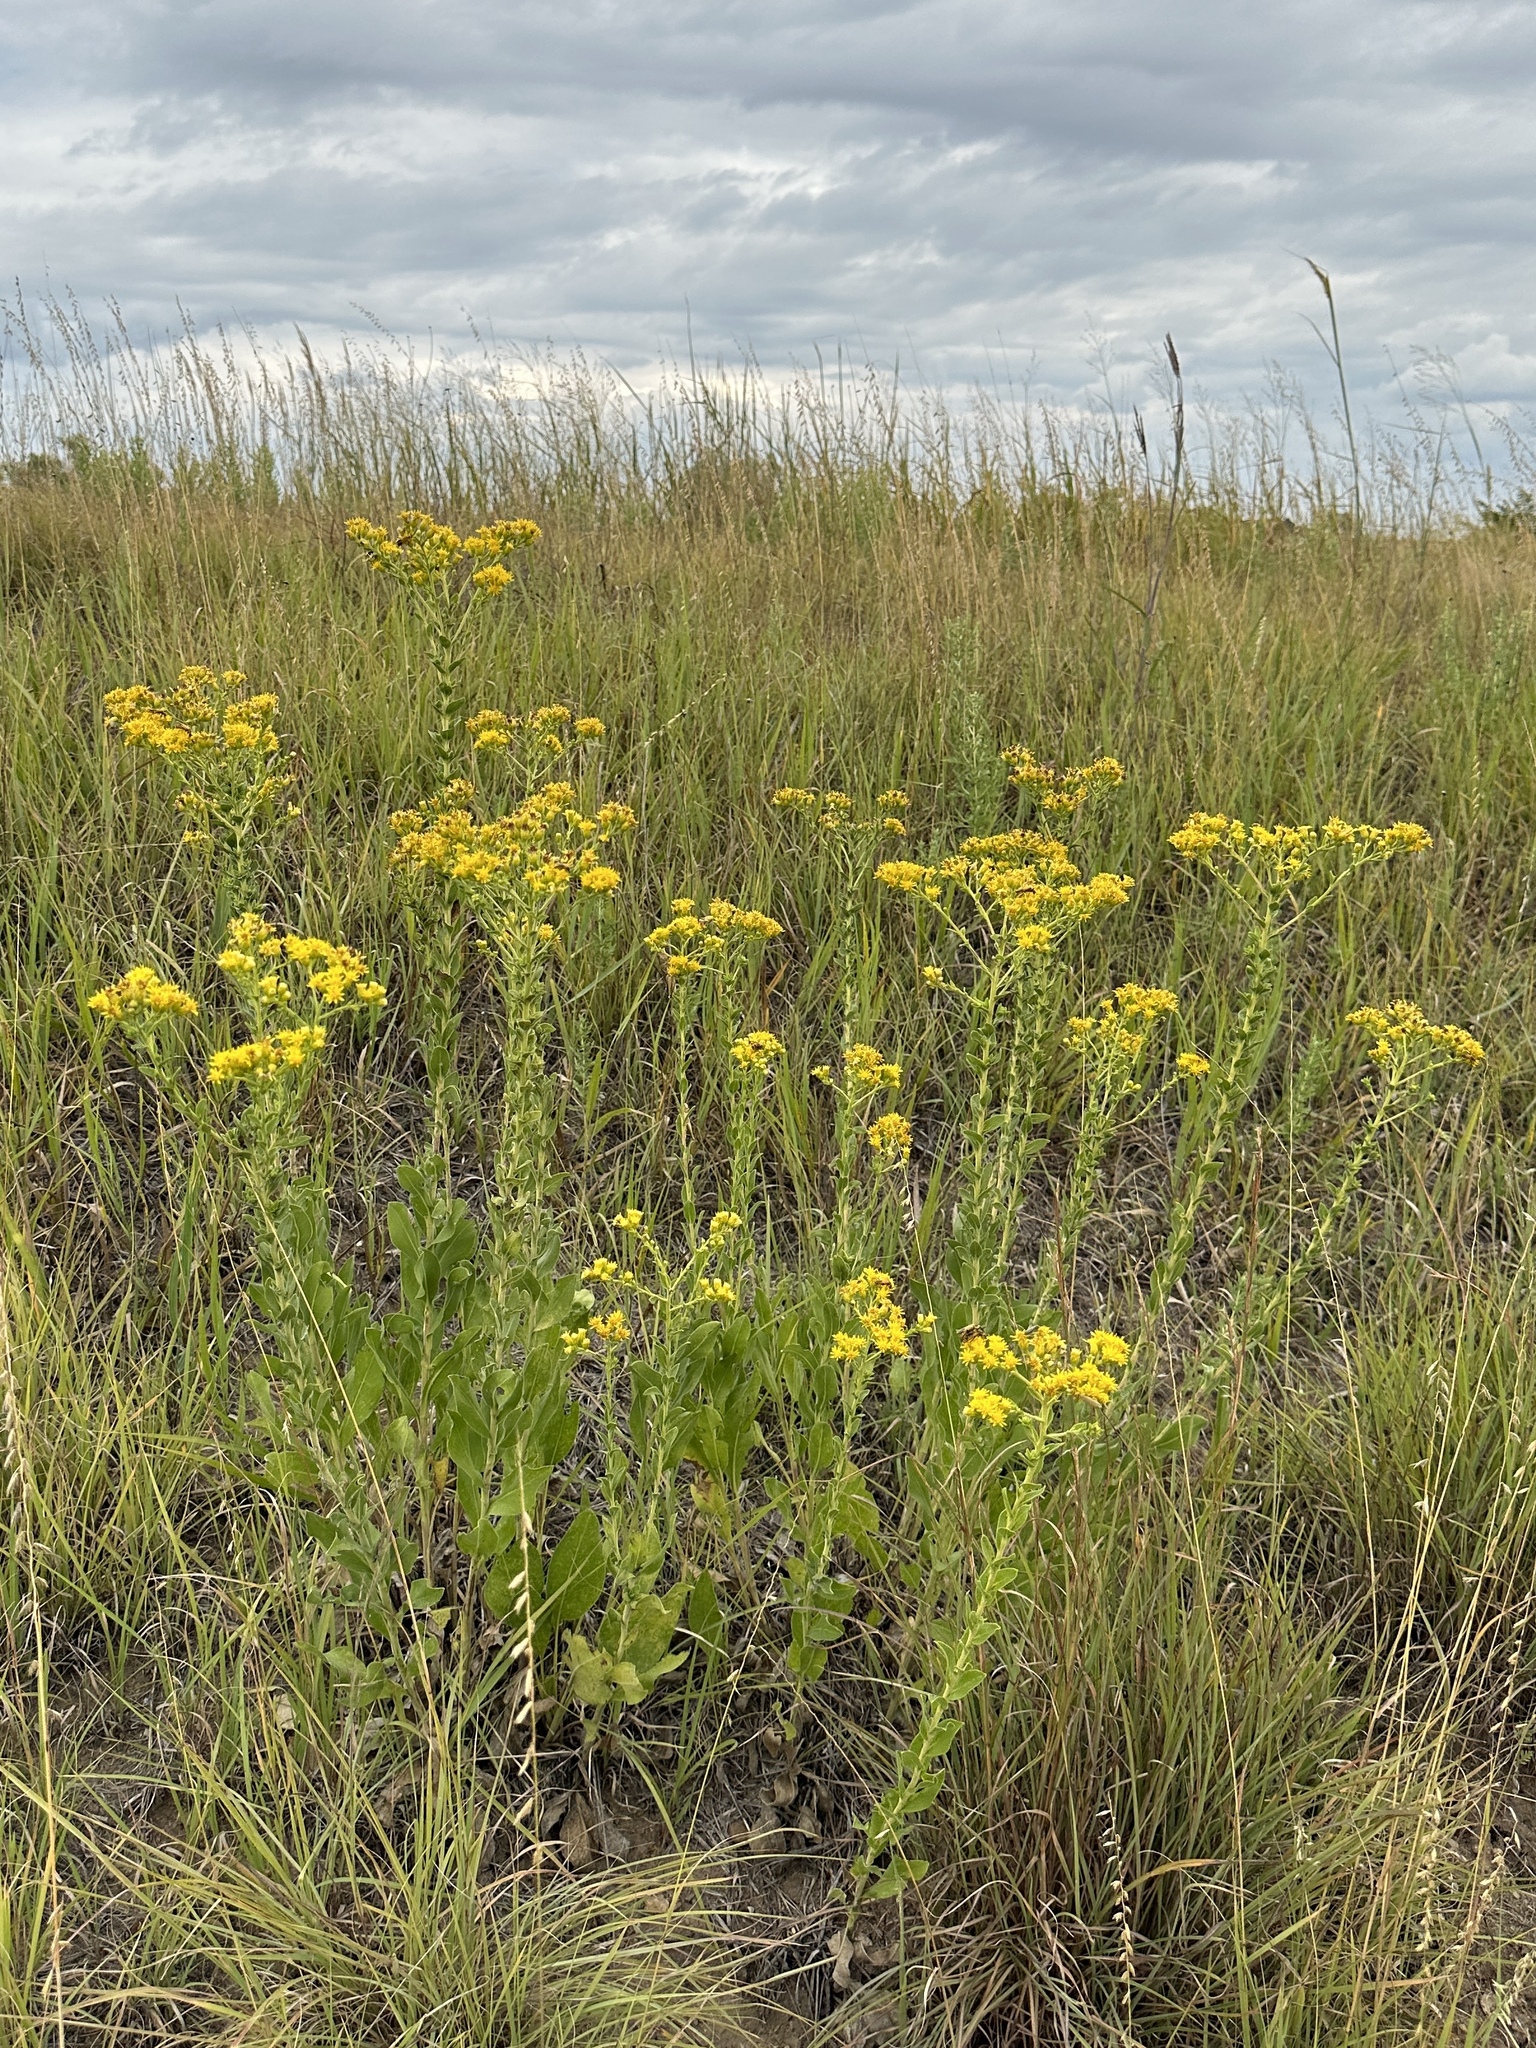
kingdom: Plantae
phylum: Tracheophyta
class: Magnoliopsida
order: Asterales
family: Asteraceae
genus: Solidago
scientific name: Solidago rigida
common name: Rigid goldenrod
